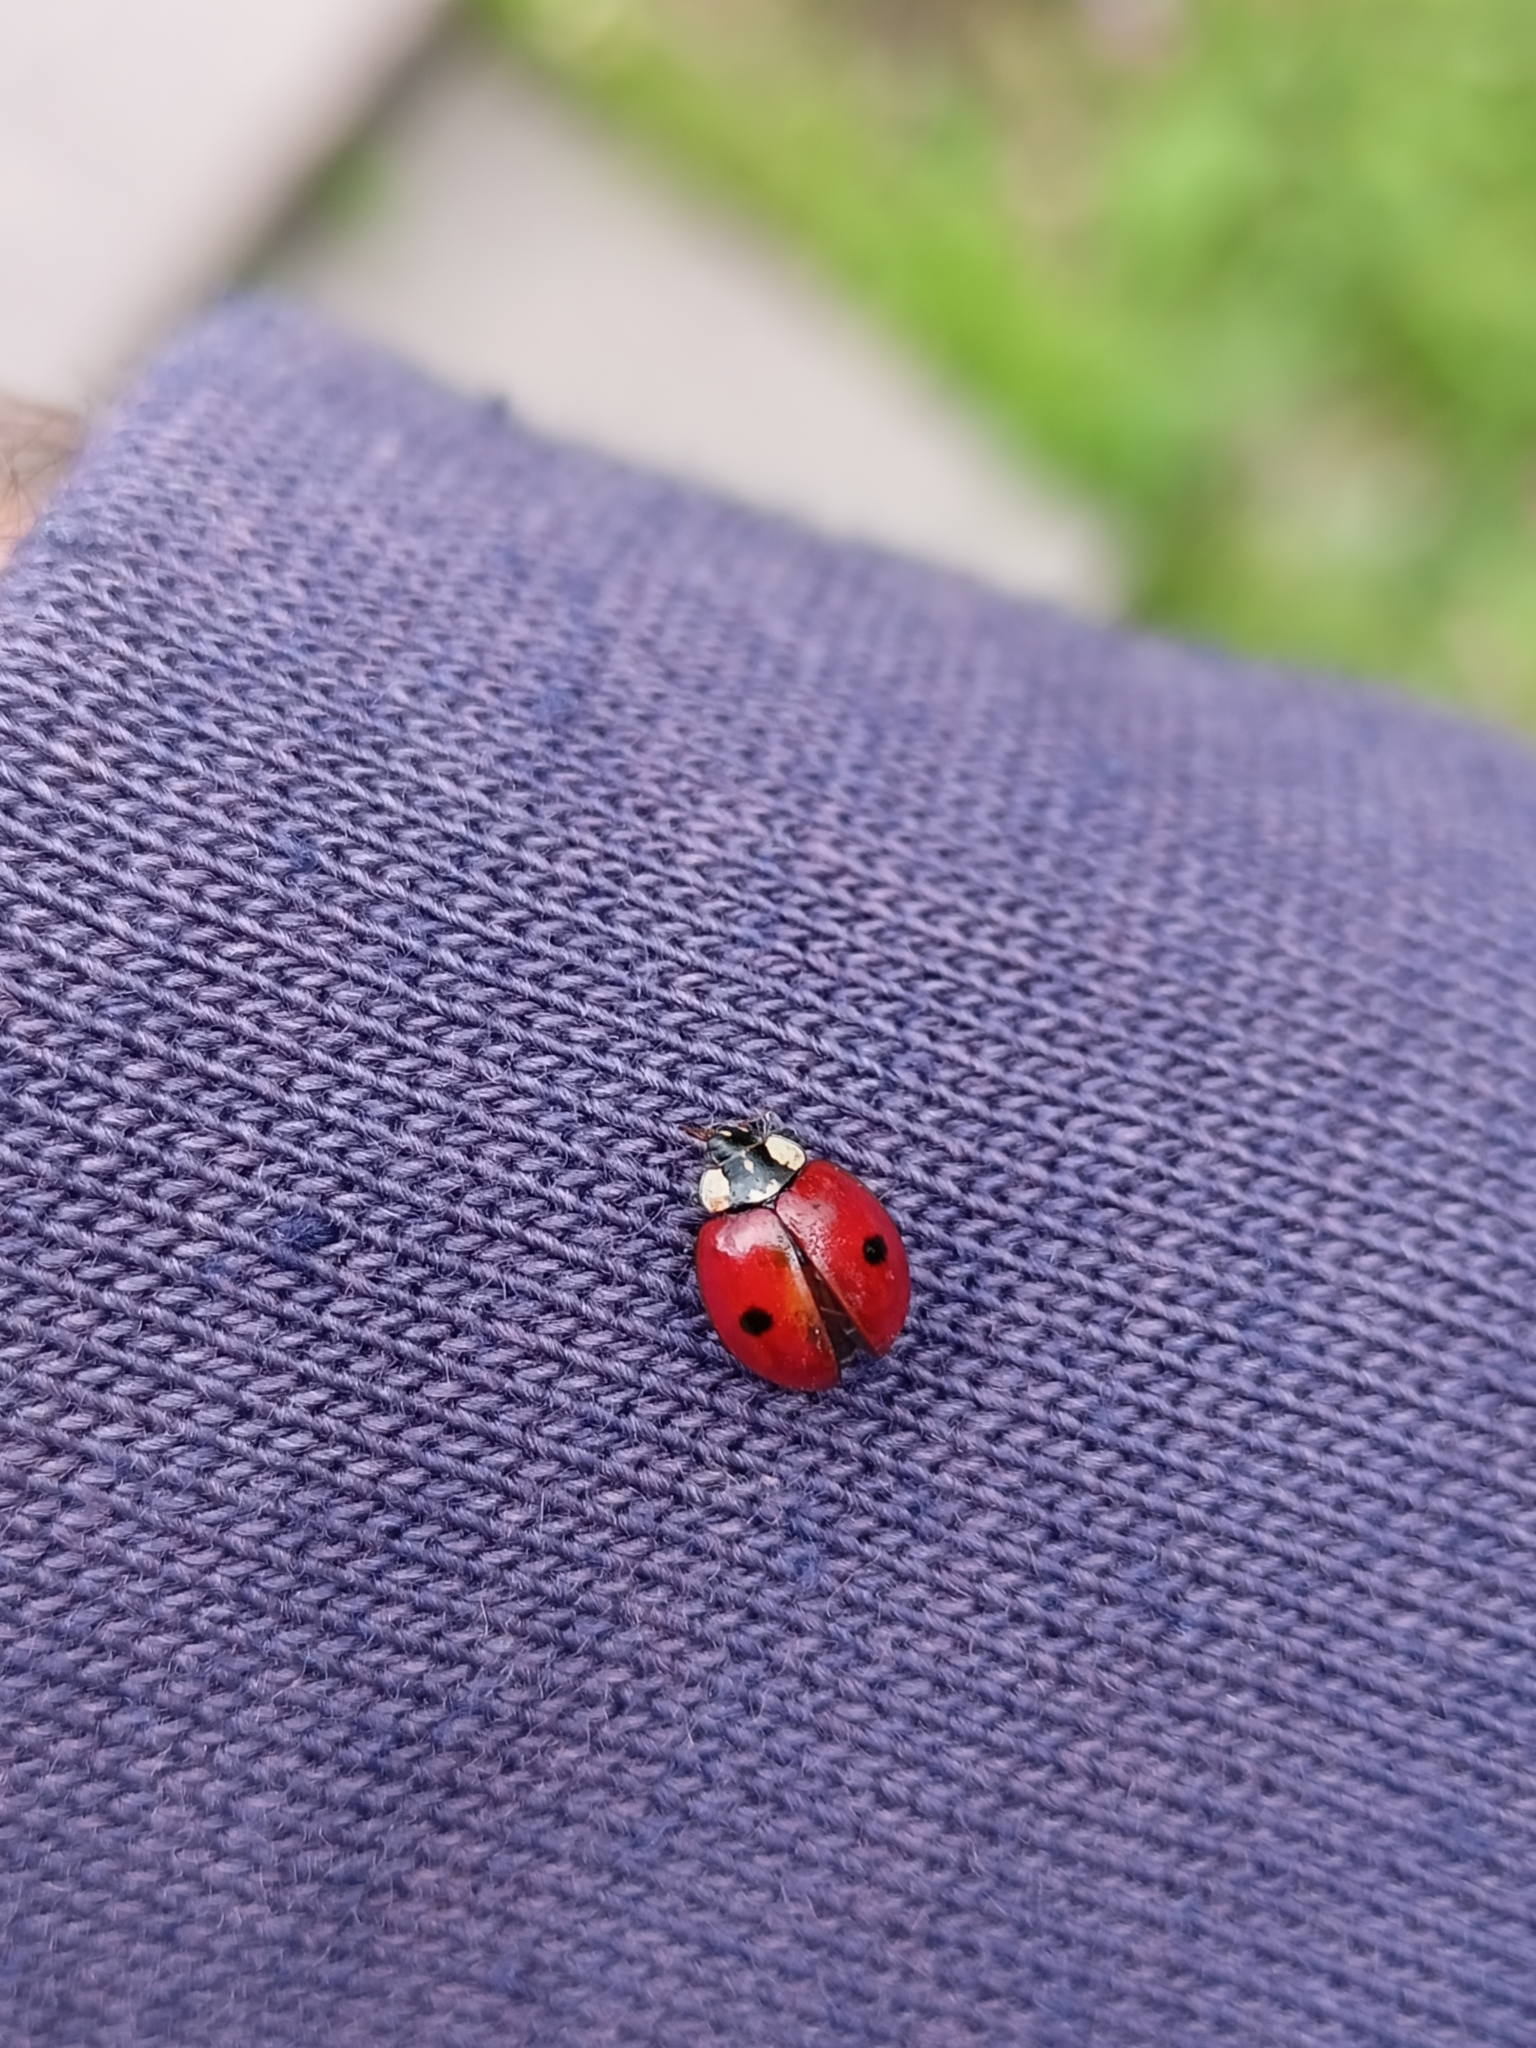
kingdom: Animalia
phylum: Arthropoda
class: Insecta
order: Coleoptera
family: Coccinellidae
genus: Adalia
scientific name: Adalia bipunctata
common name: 2-spot ladybird
